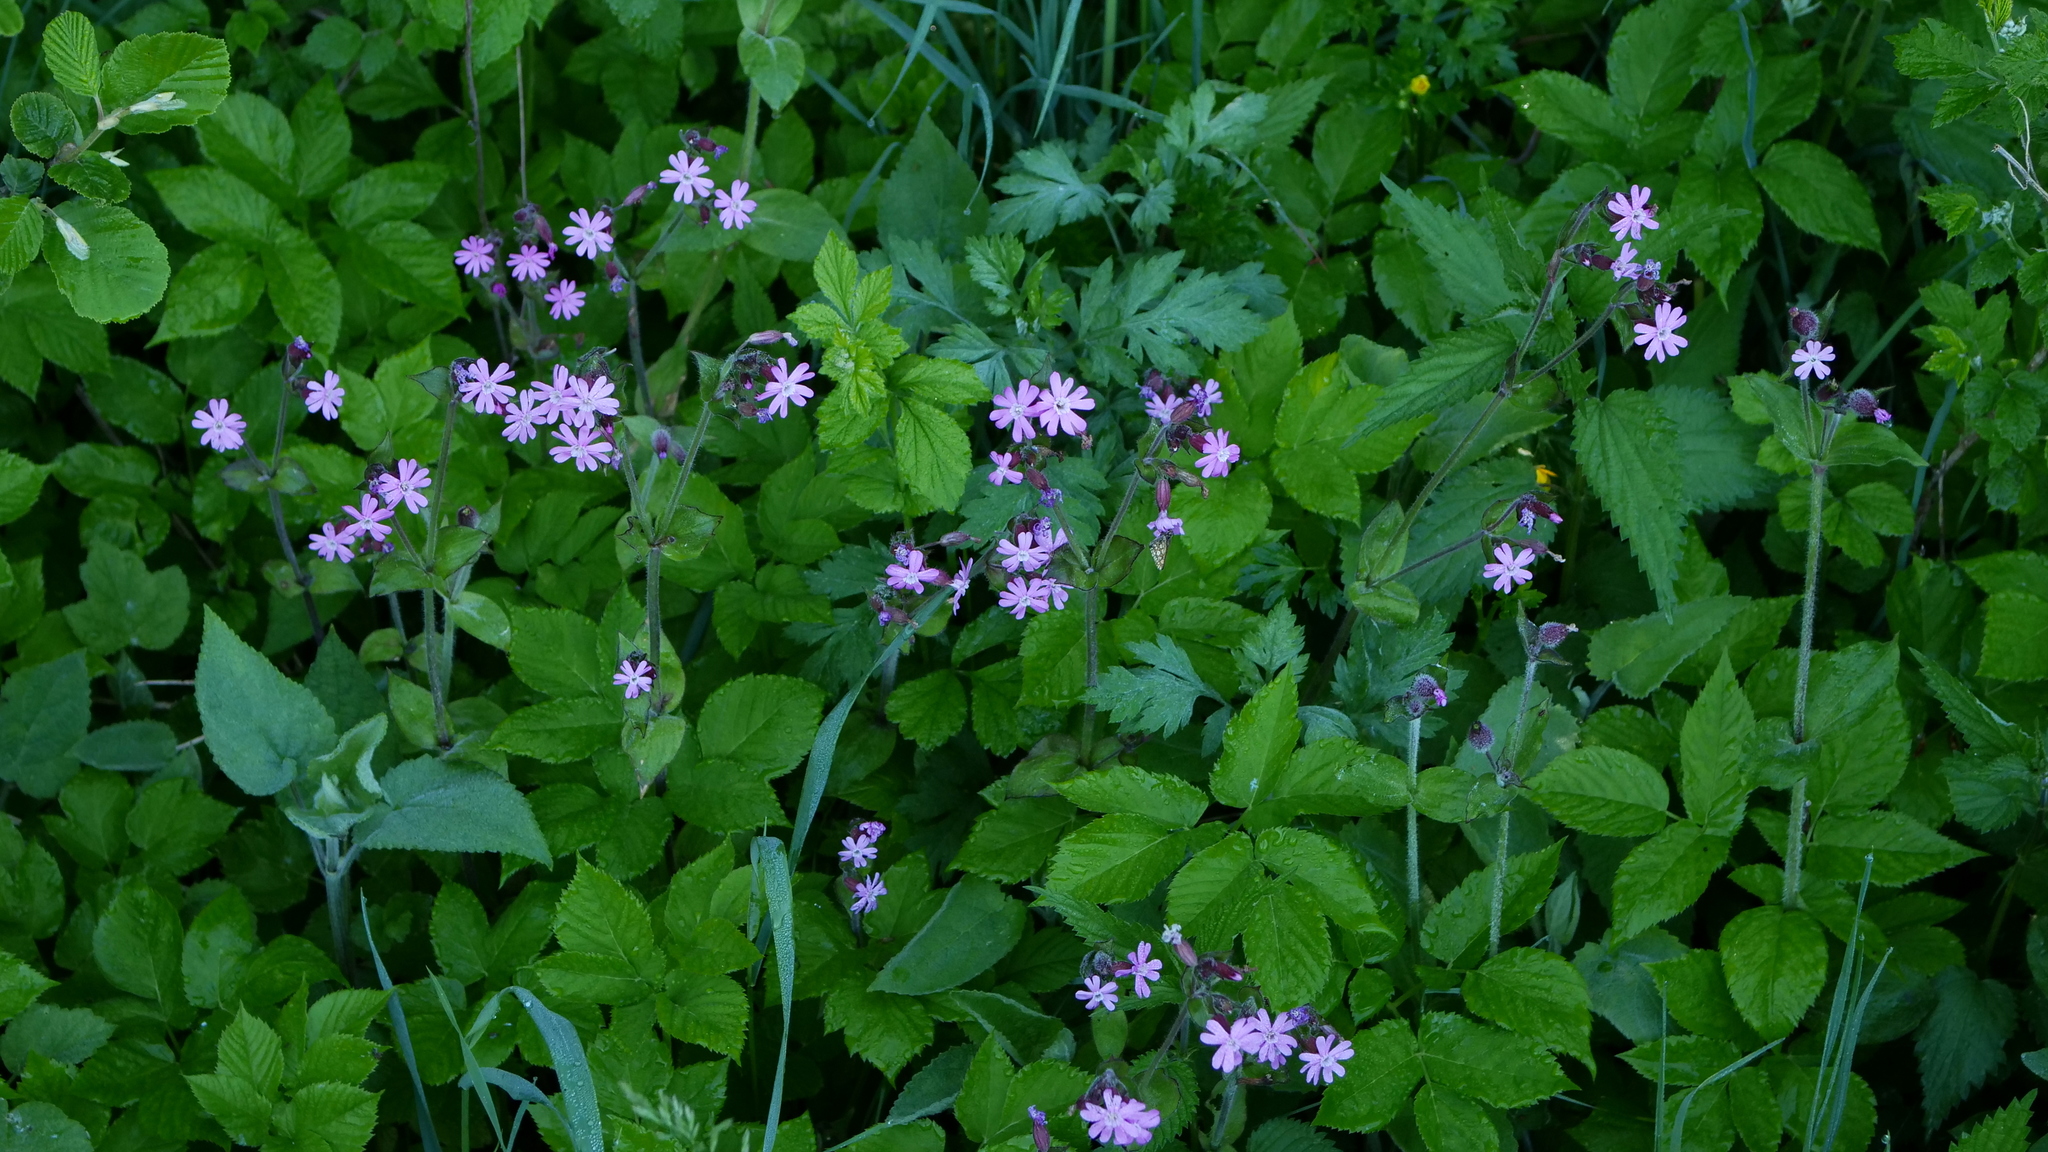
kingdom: Plantae
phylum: Tracheophyta
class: Magnoliopsida
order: Caryophyllales
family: Caryophyllaceae
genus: Silene
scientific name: Silene dioica
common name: Red campion
